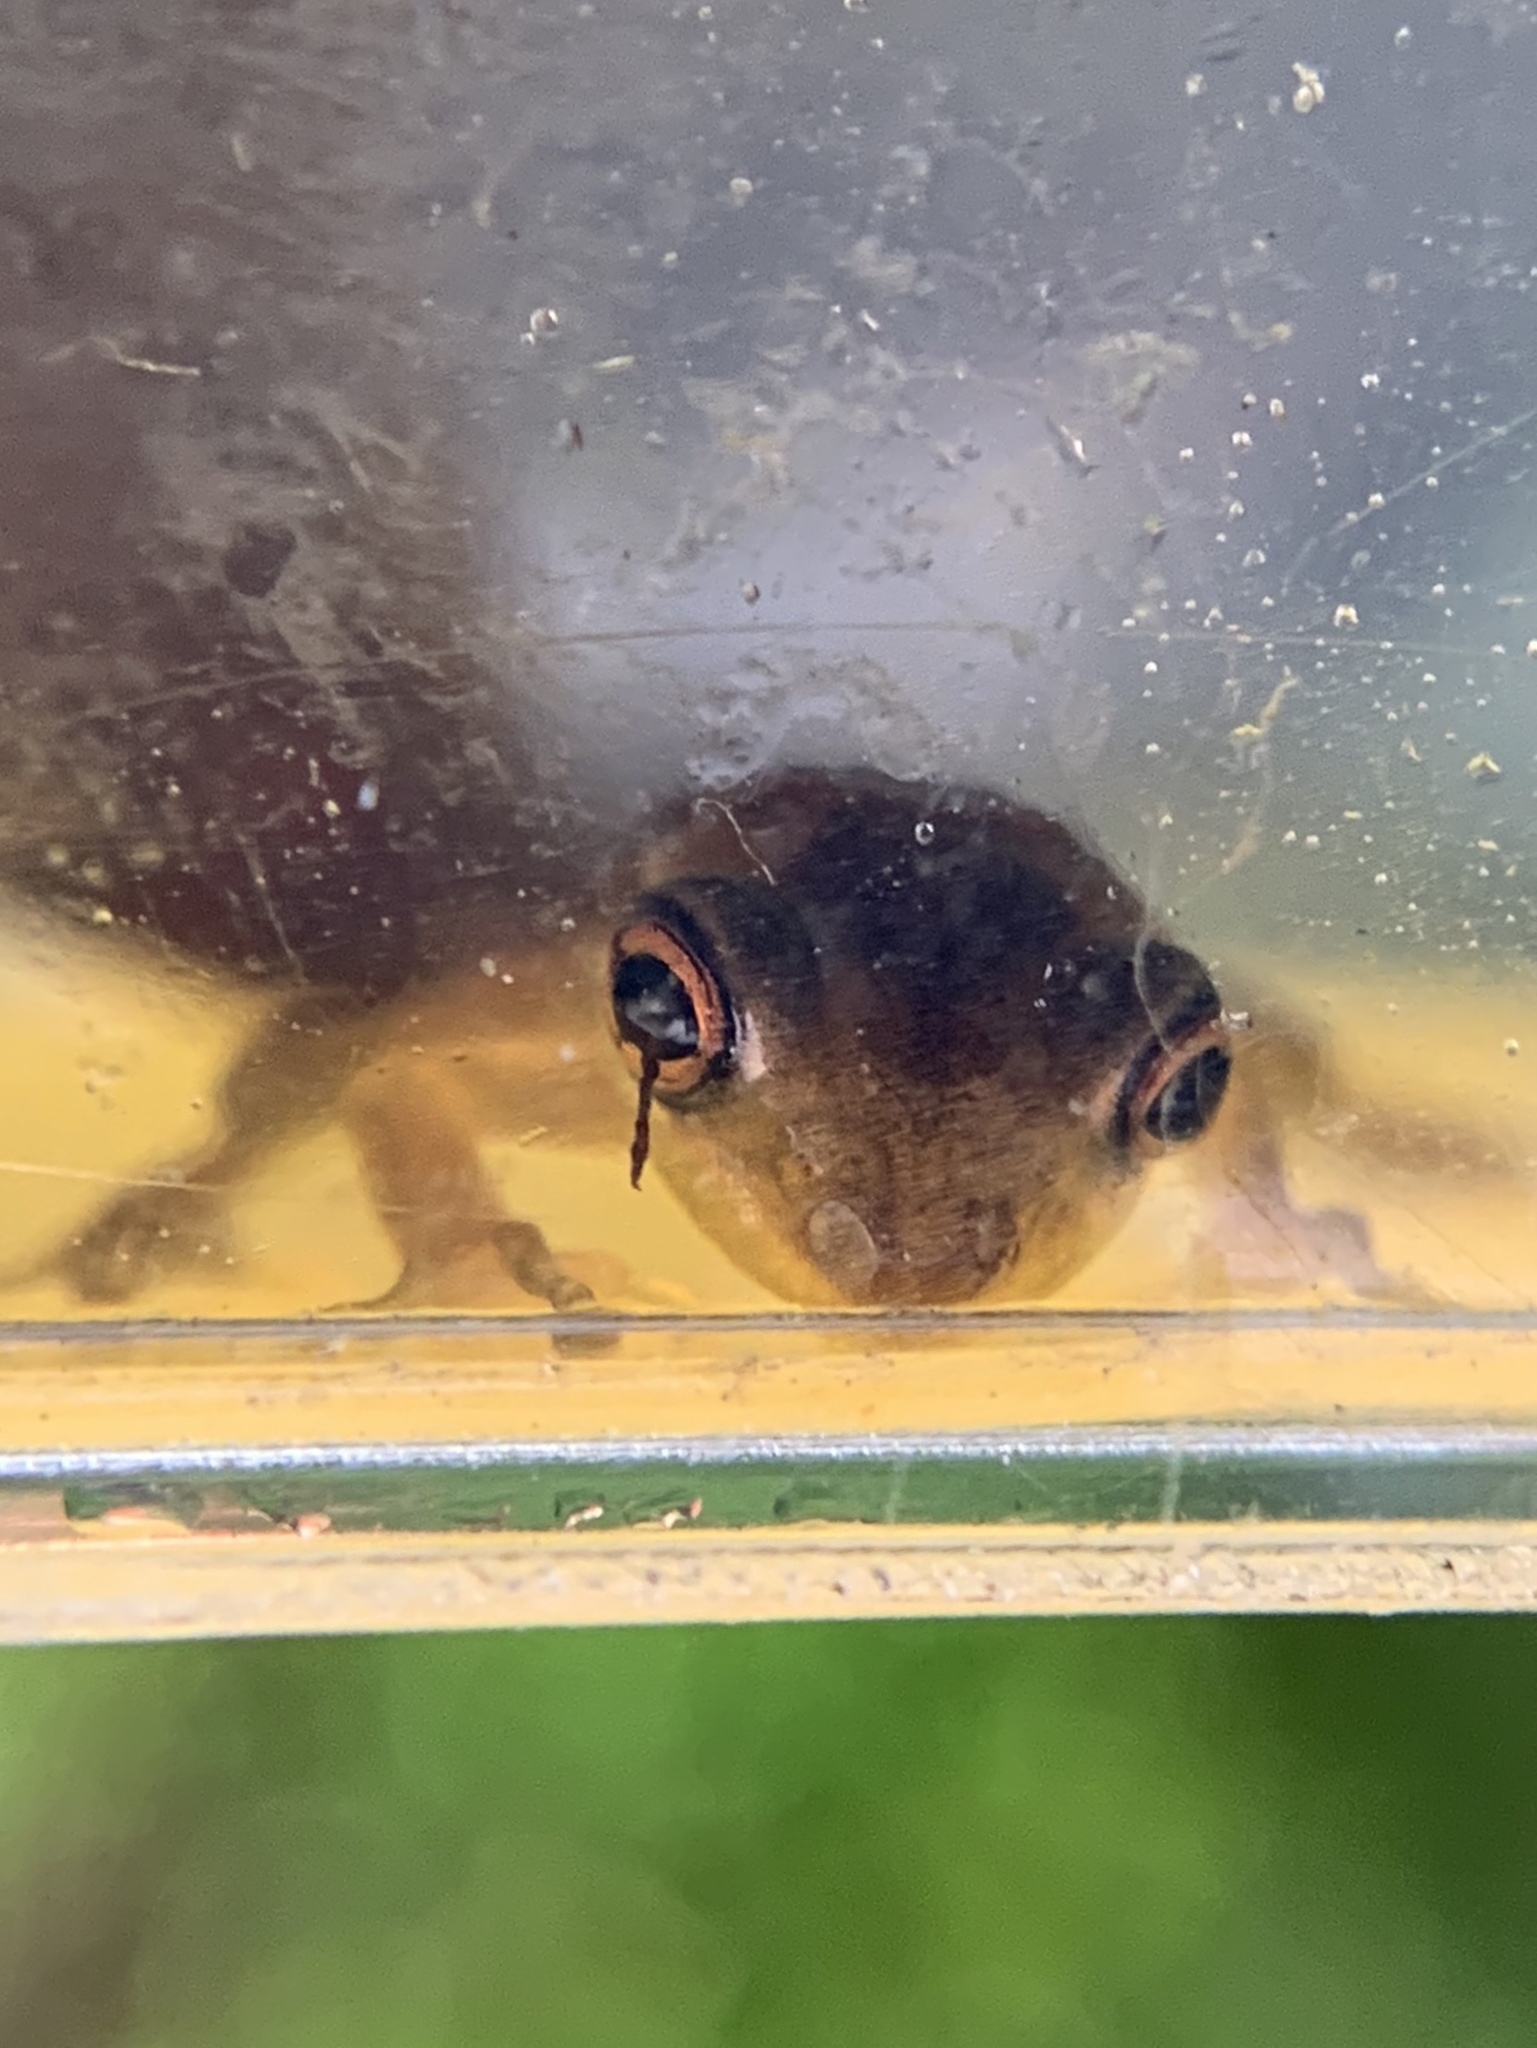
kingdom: Animalia
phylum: Chordata
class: Amphibia
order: Anura
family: Hylidae
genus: Osteopilus
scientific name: Osteopilus septentrionalis
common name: Cuban treefrog
